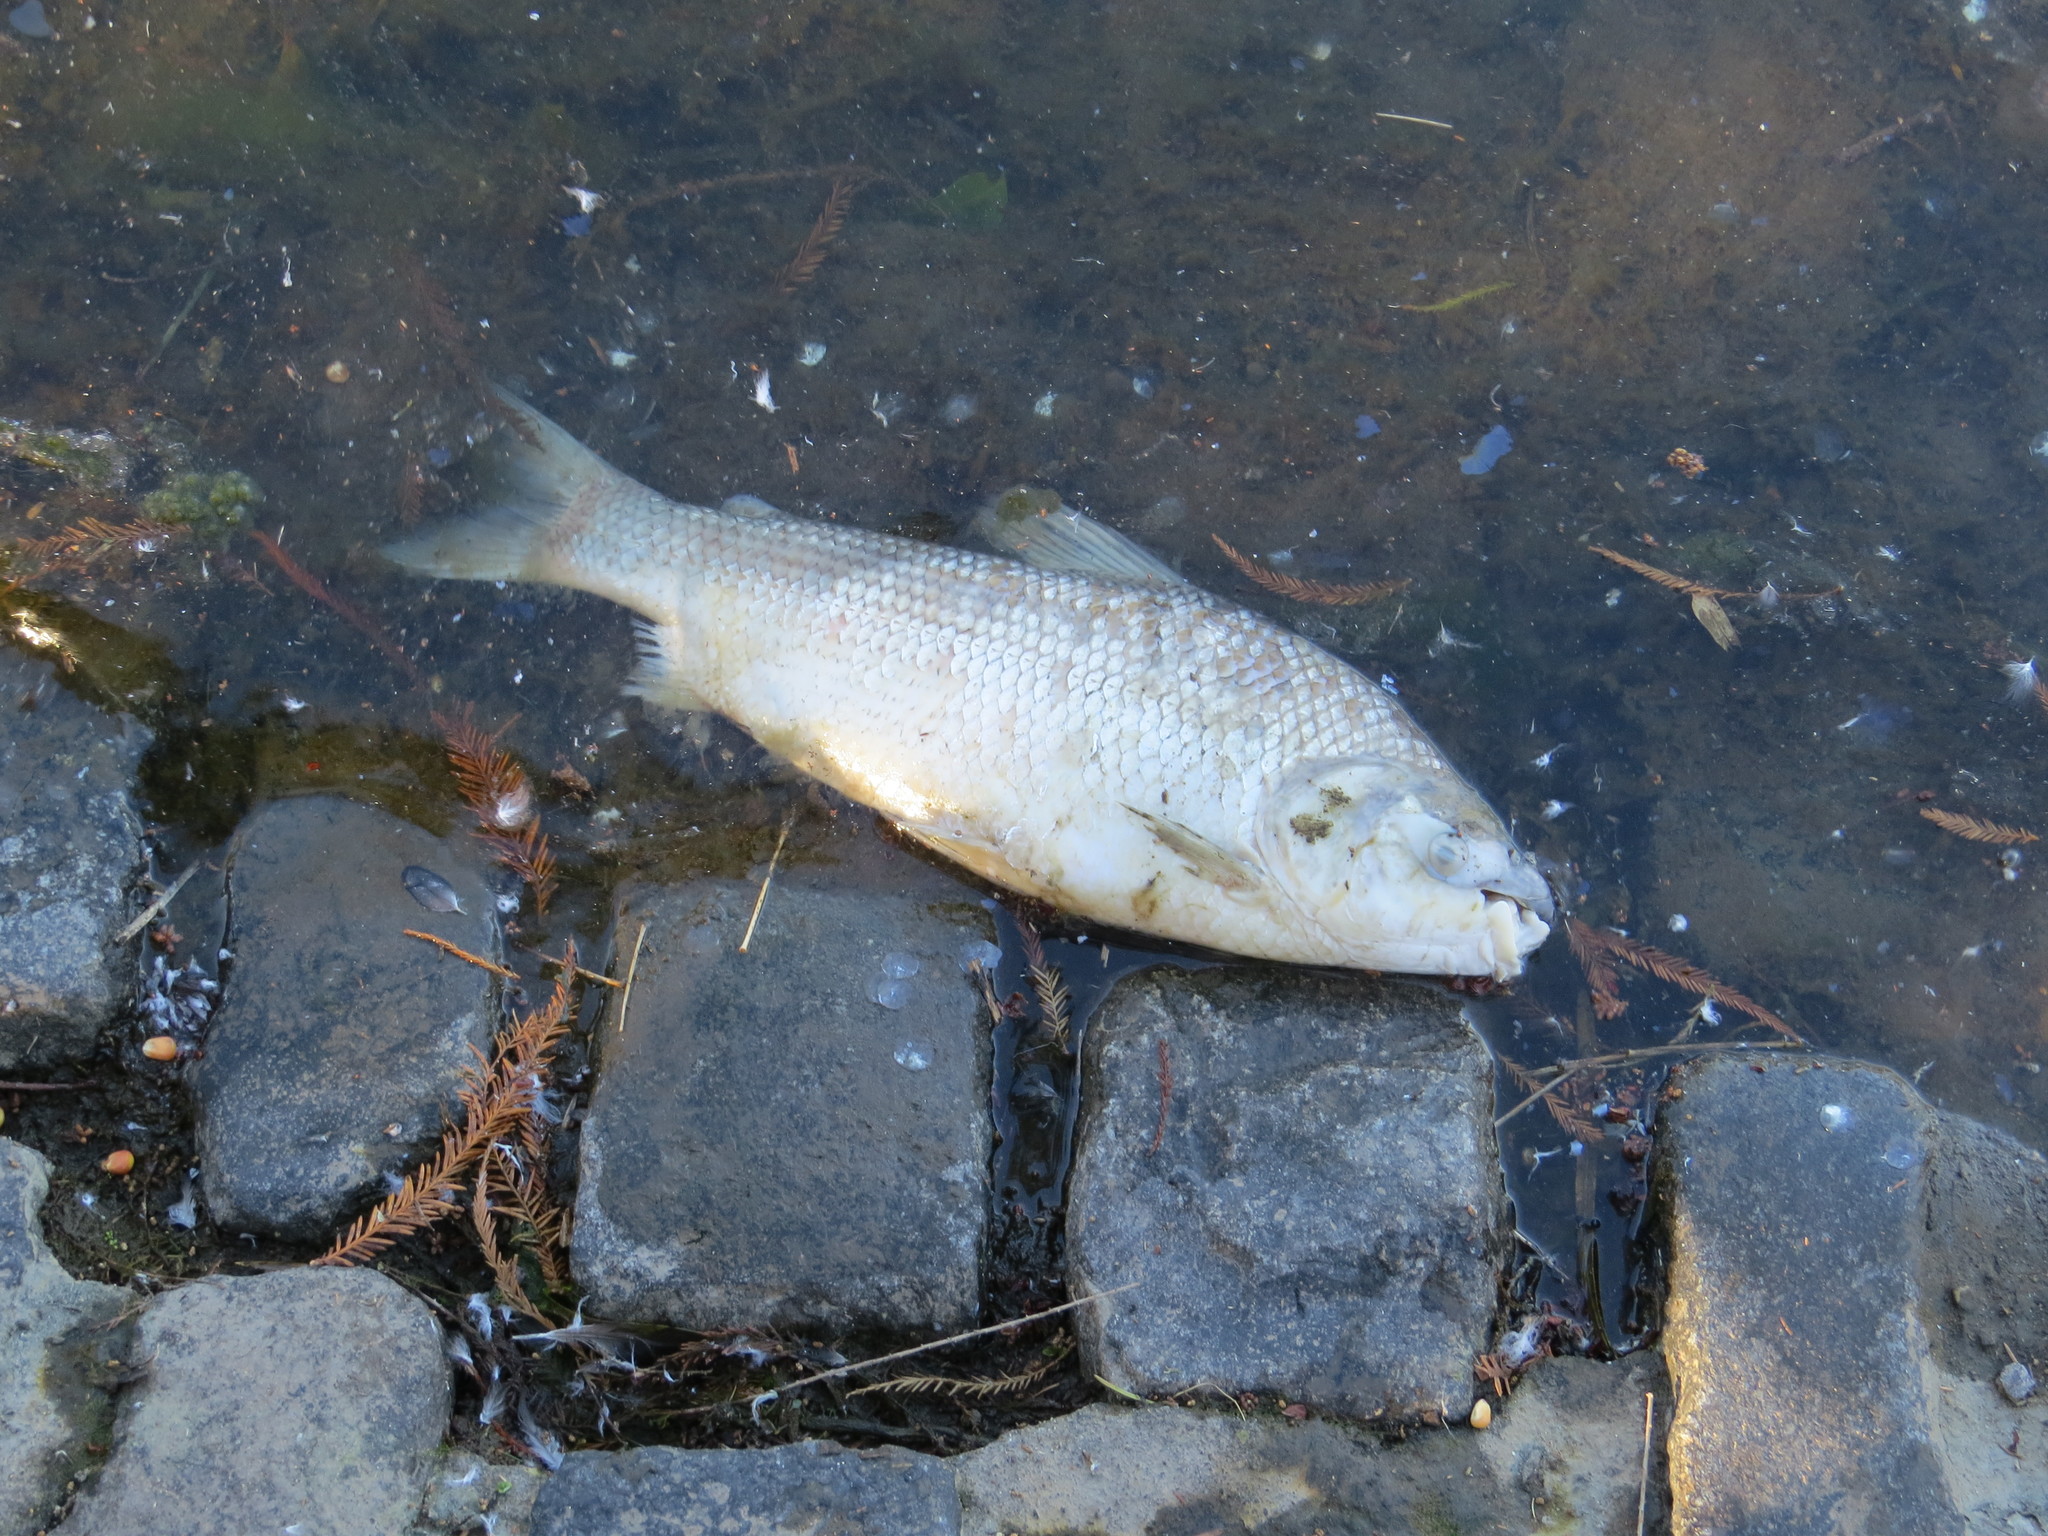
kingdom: Animalia
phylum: Chordata
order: Characiformes
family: Prochilodontidae
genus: Prochilodus
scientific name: Prochilodus lineatus
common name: Curimbata
